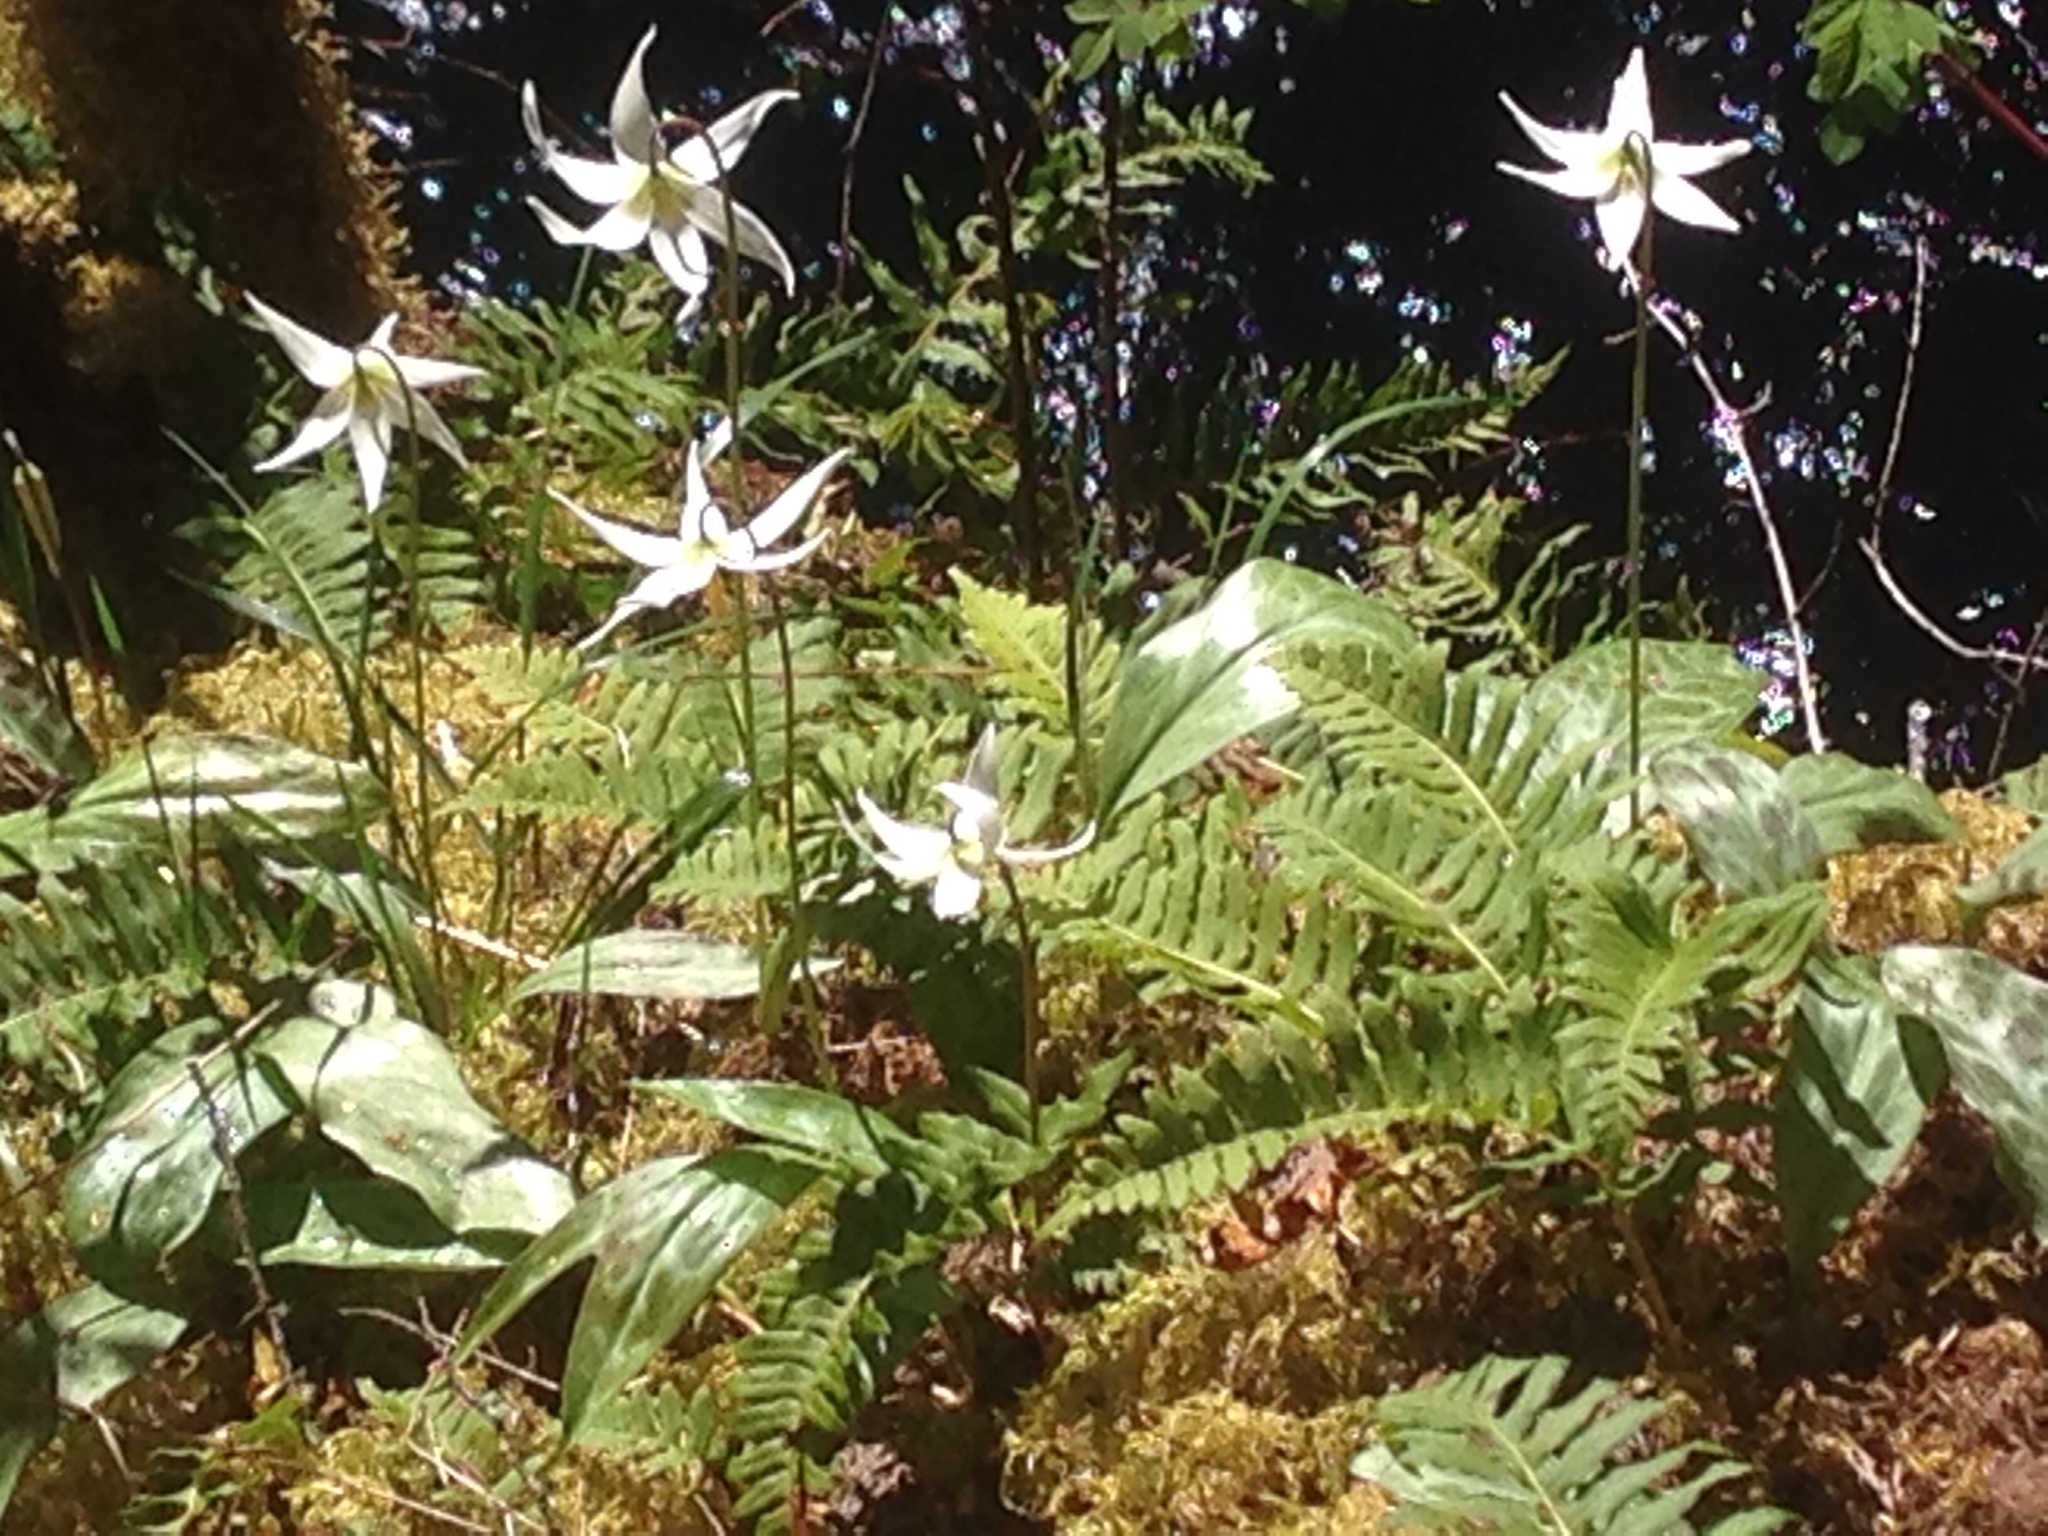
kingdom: Plantae
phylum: Tracheophyta
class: Liliopsida
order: Liliales
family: Liliaceae
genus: Erythronium
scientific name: Erythronium oregonum
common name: Giant adder's-tongue
